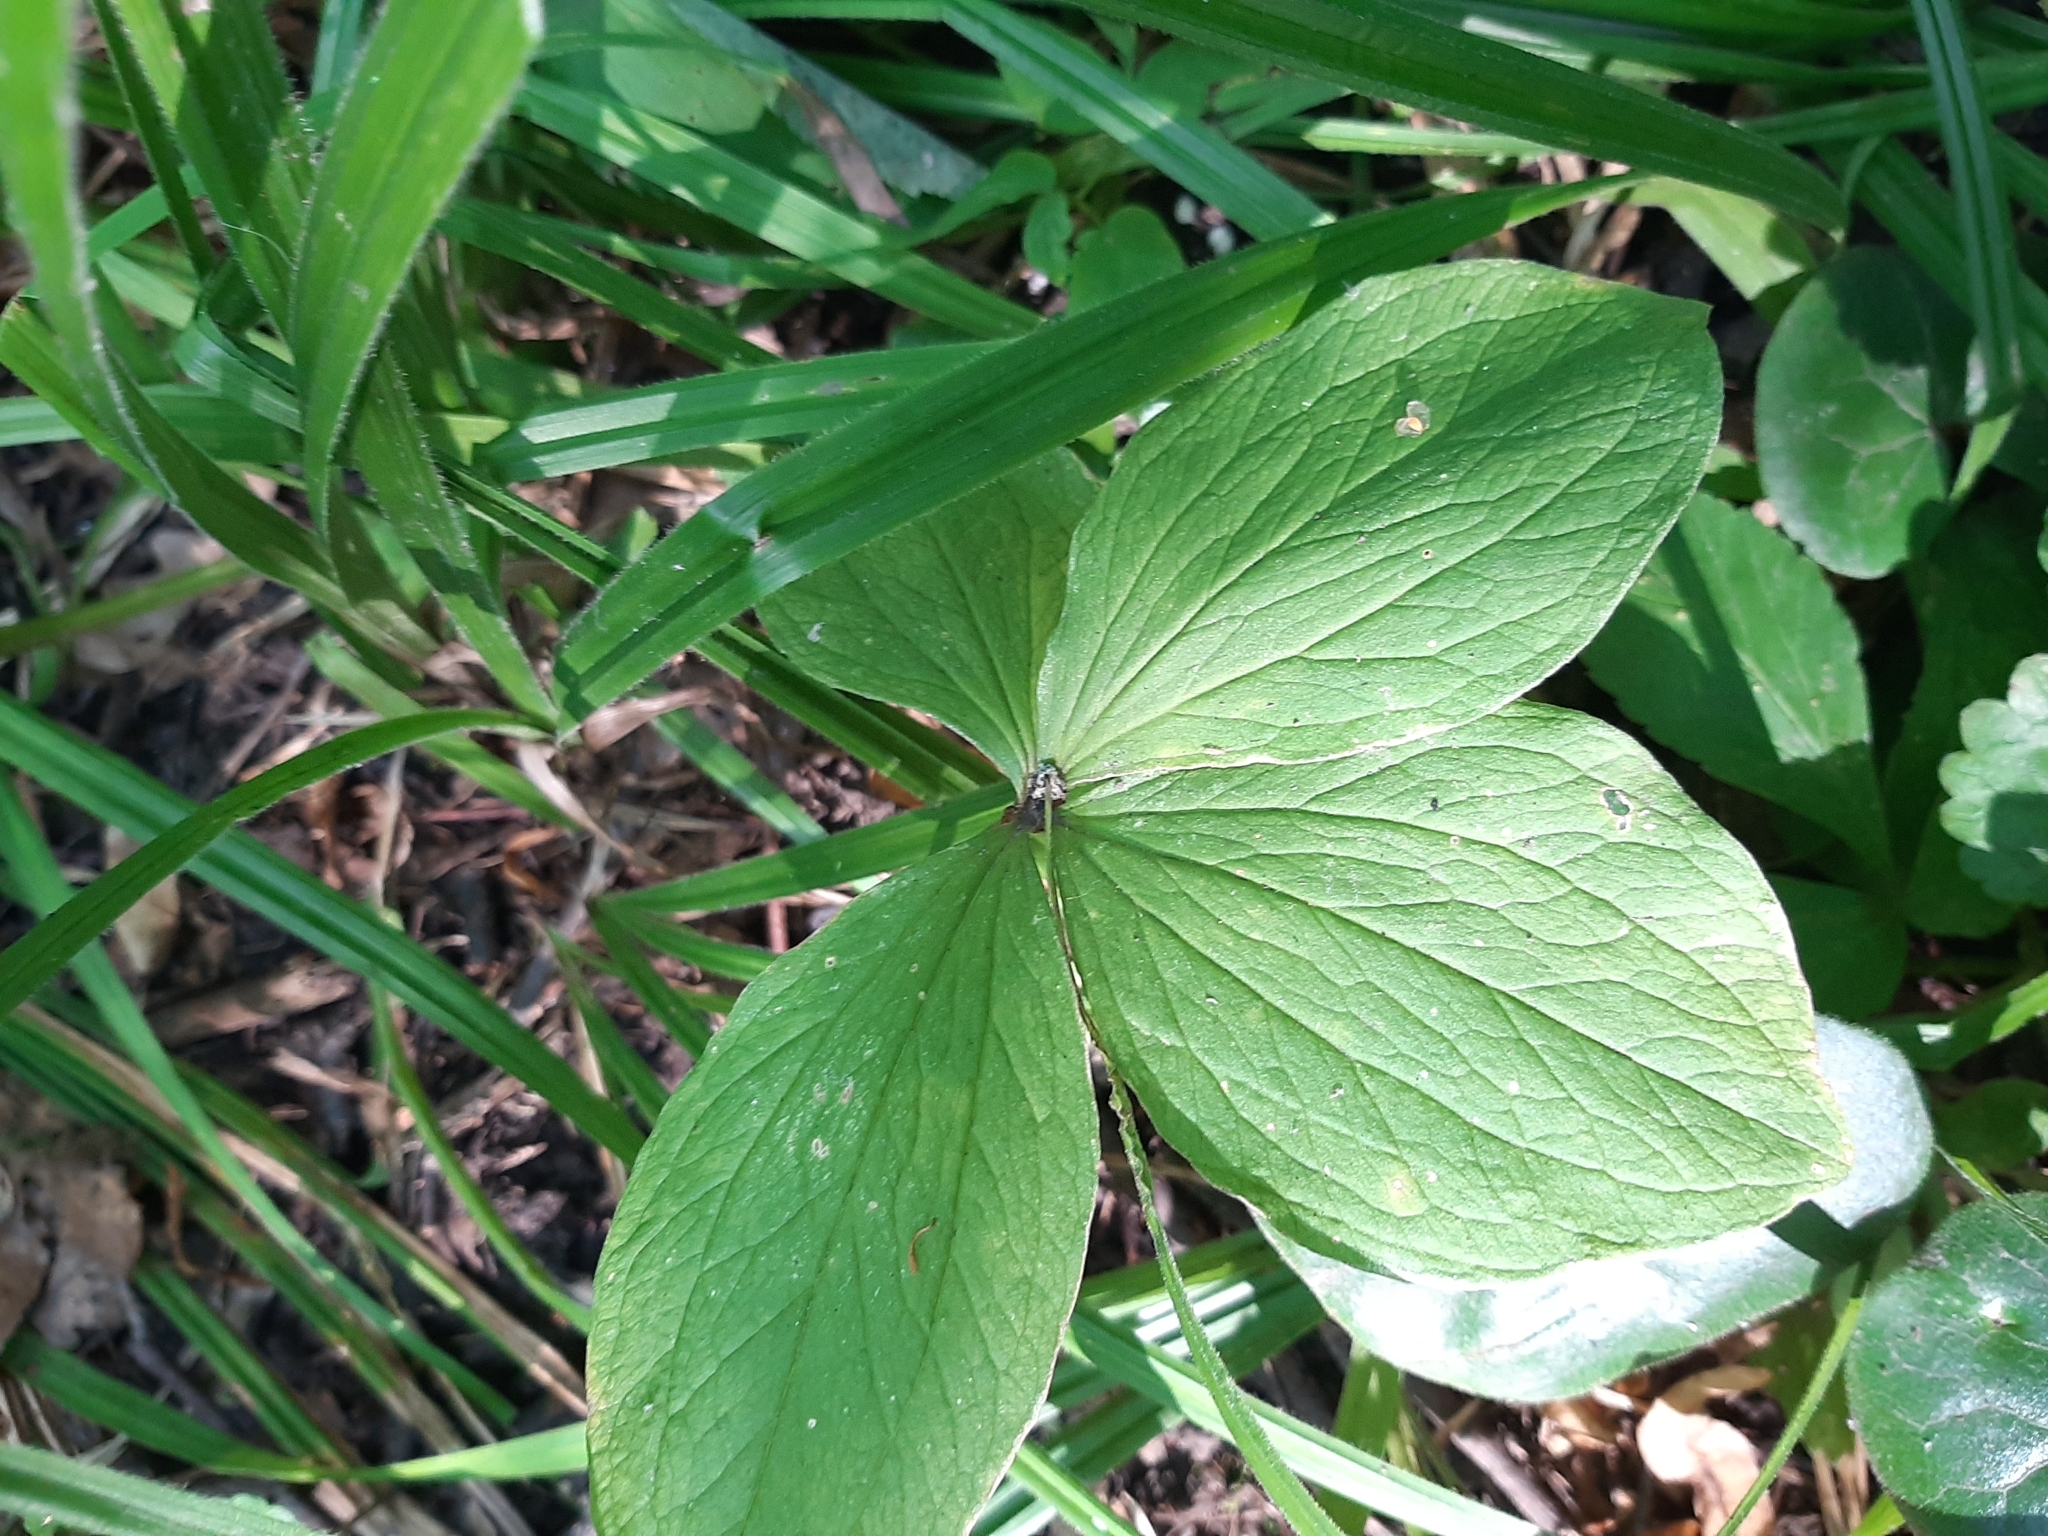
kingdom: Plantae
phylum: Tracheophyta
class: Liliopsida
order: Liliales
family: Melanthiaceae
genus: Paris
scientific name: Paris quadrifolia
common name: Herb-paris
